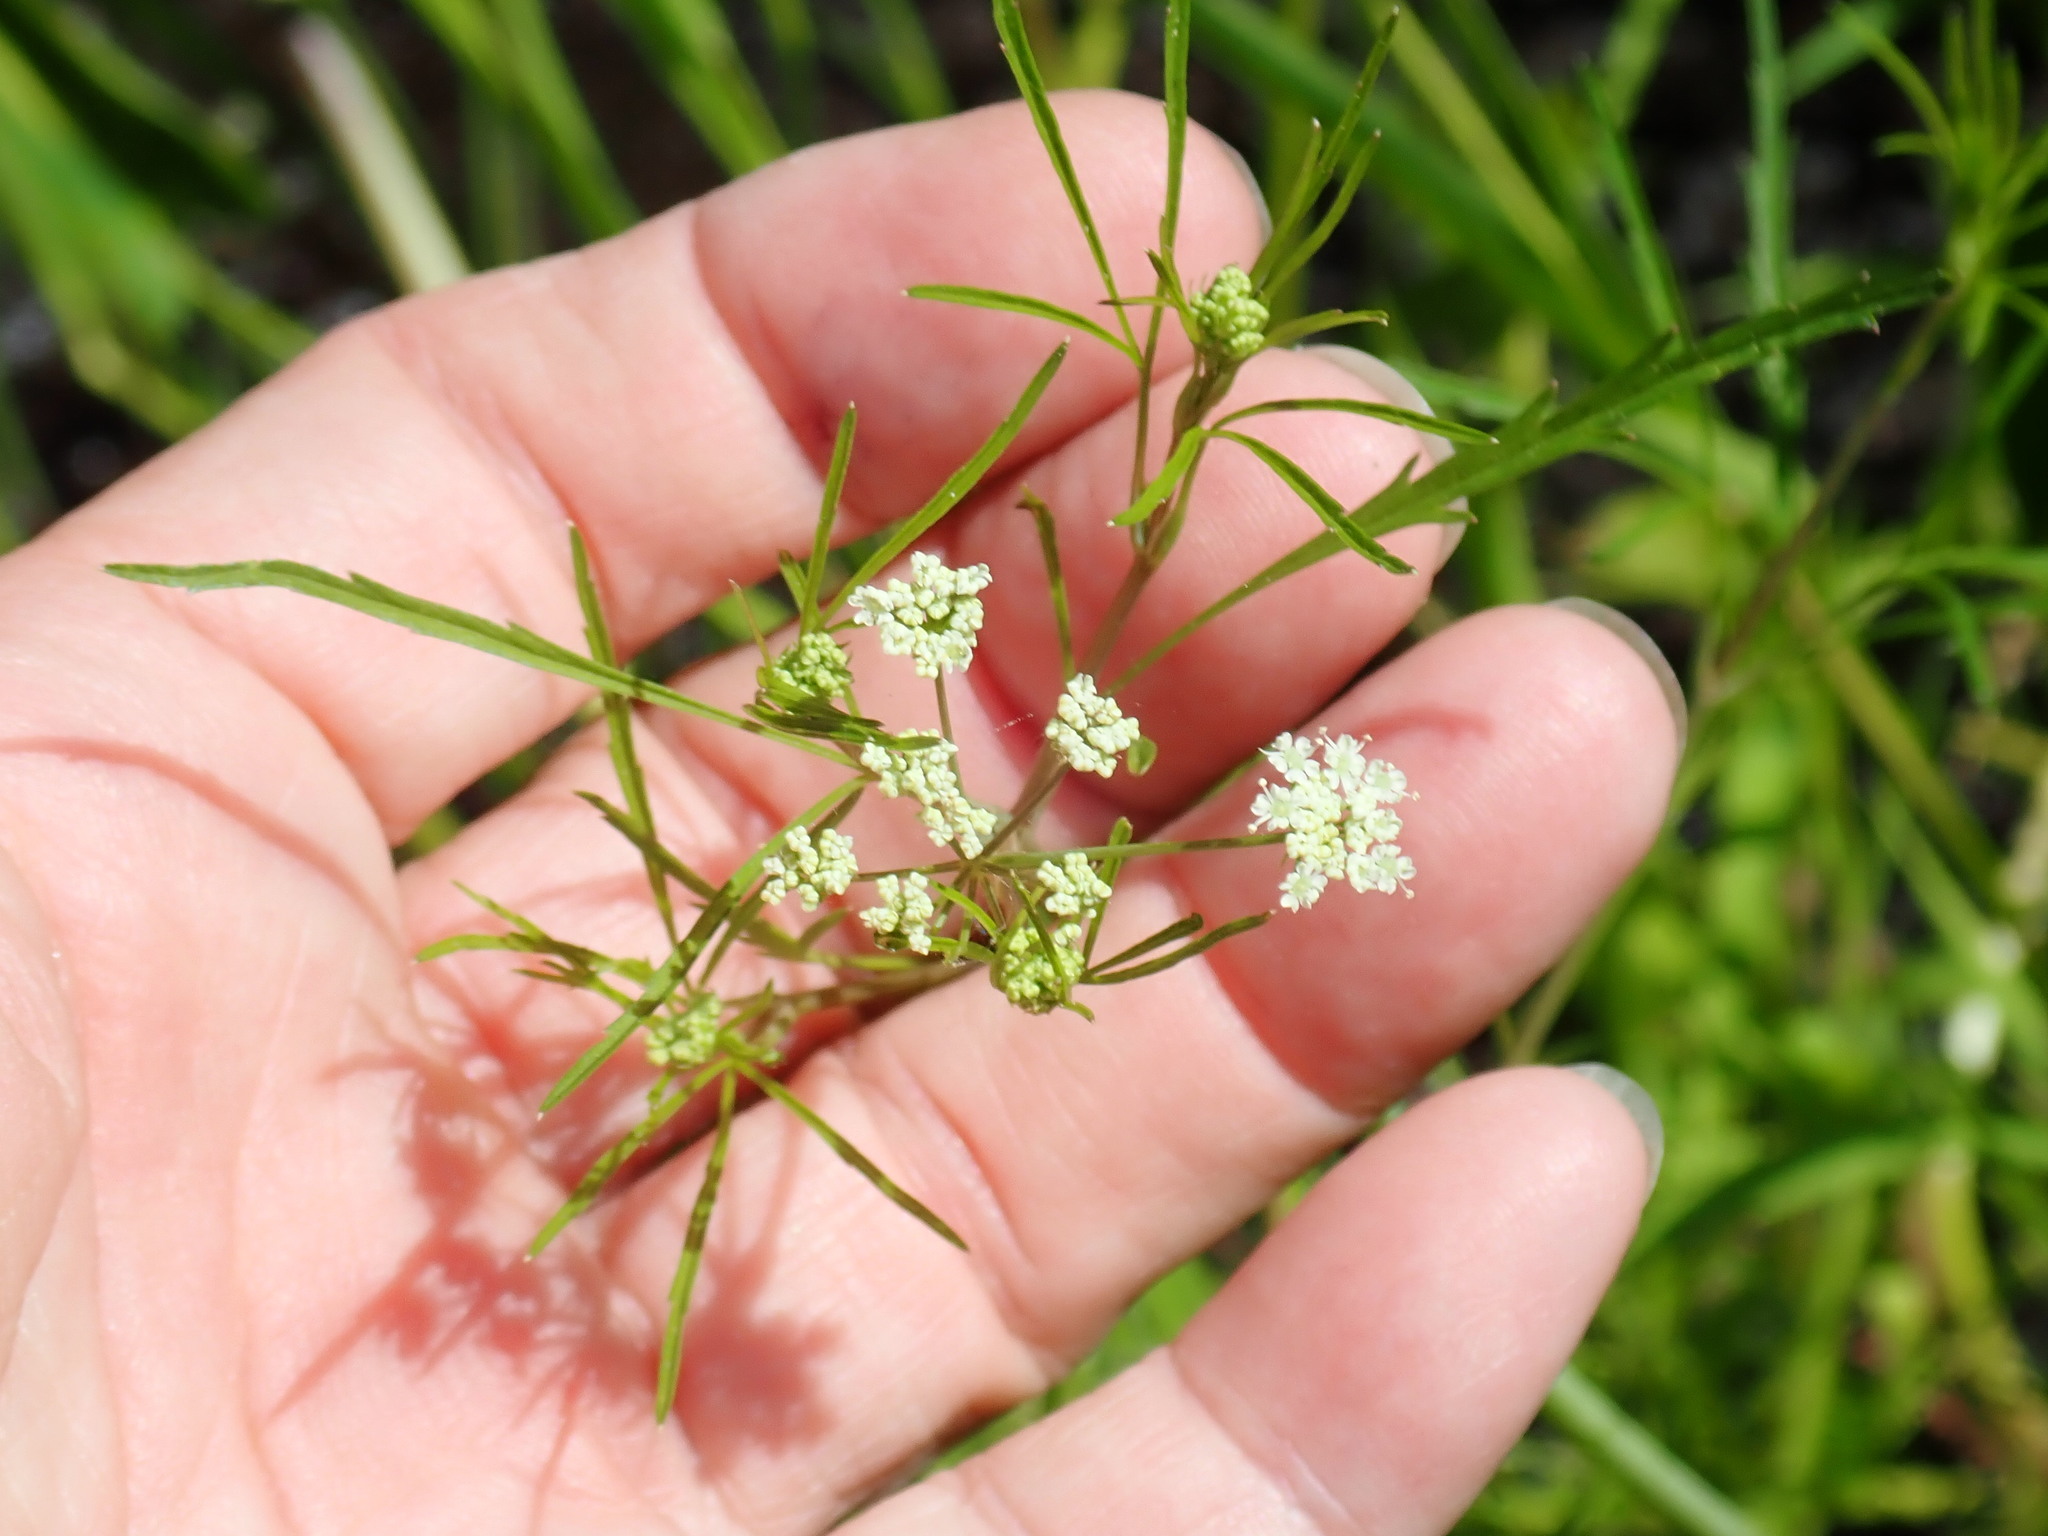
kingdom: Plantae
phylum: Tracheophyta
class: Magnoliopsida
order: Apiales
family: Apiaceae
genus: Cicuta
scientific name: Cicuta bulbifera
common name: Bulb-bearing water-hemlock
